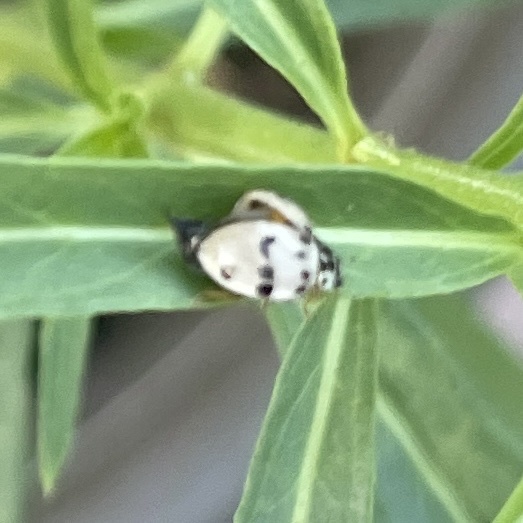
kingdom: Animalia
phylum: Arthropoda
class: Insecta
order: Coleoptera
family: Coccinellidae
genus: Olla
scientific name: Olla v-nigrum
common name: Ashy gray lady beetle
